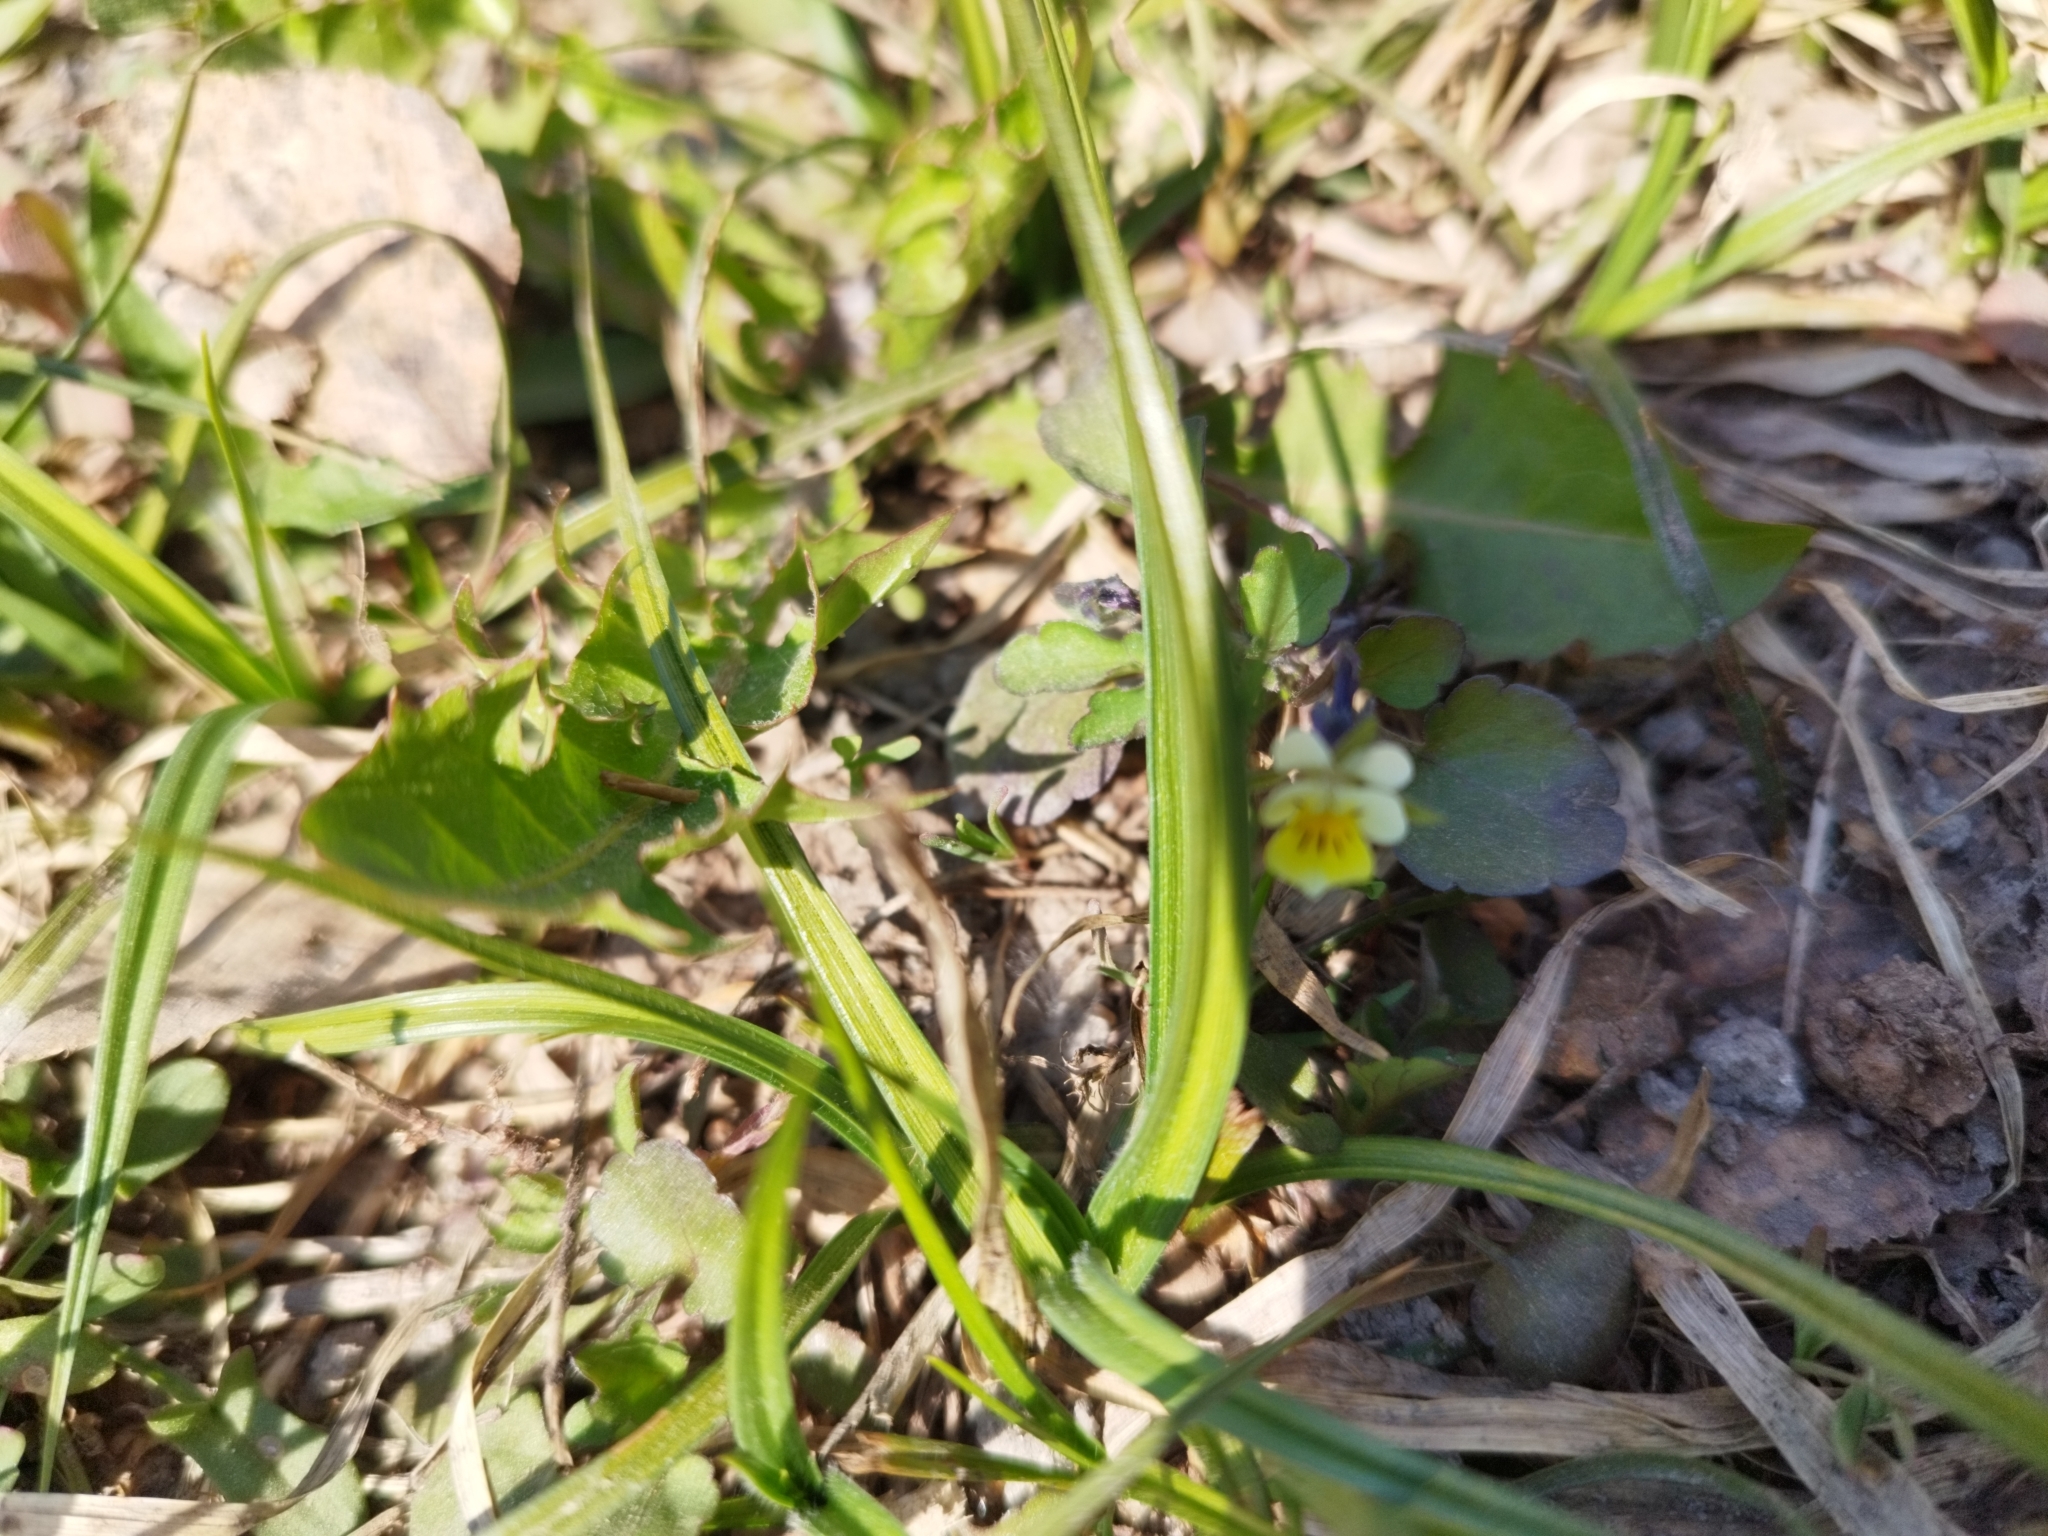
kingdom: Plantae
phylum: Tracheophyta
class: Magnoliopsida
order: Malpighiales
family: Violaceae
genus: Viola
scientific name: Viola arvensis
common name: Field pansy
